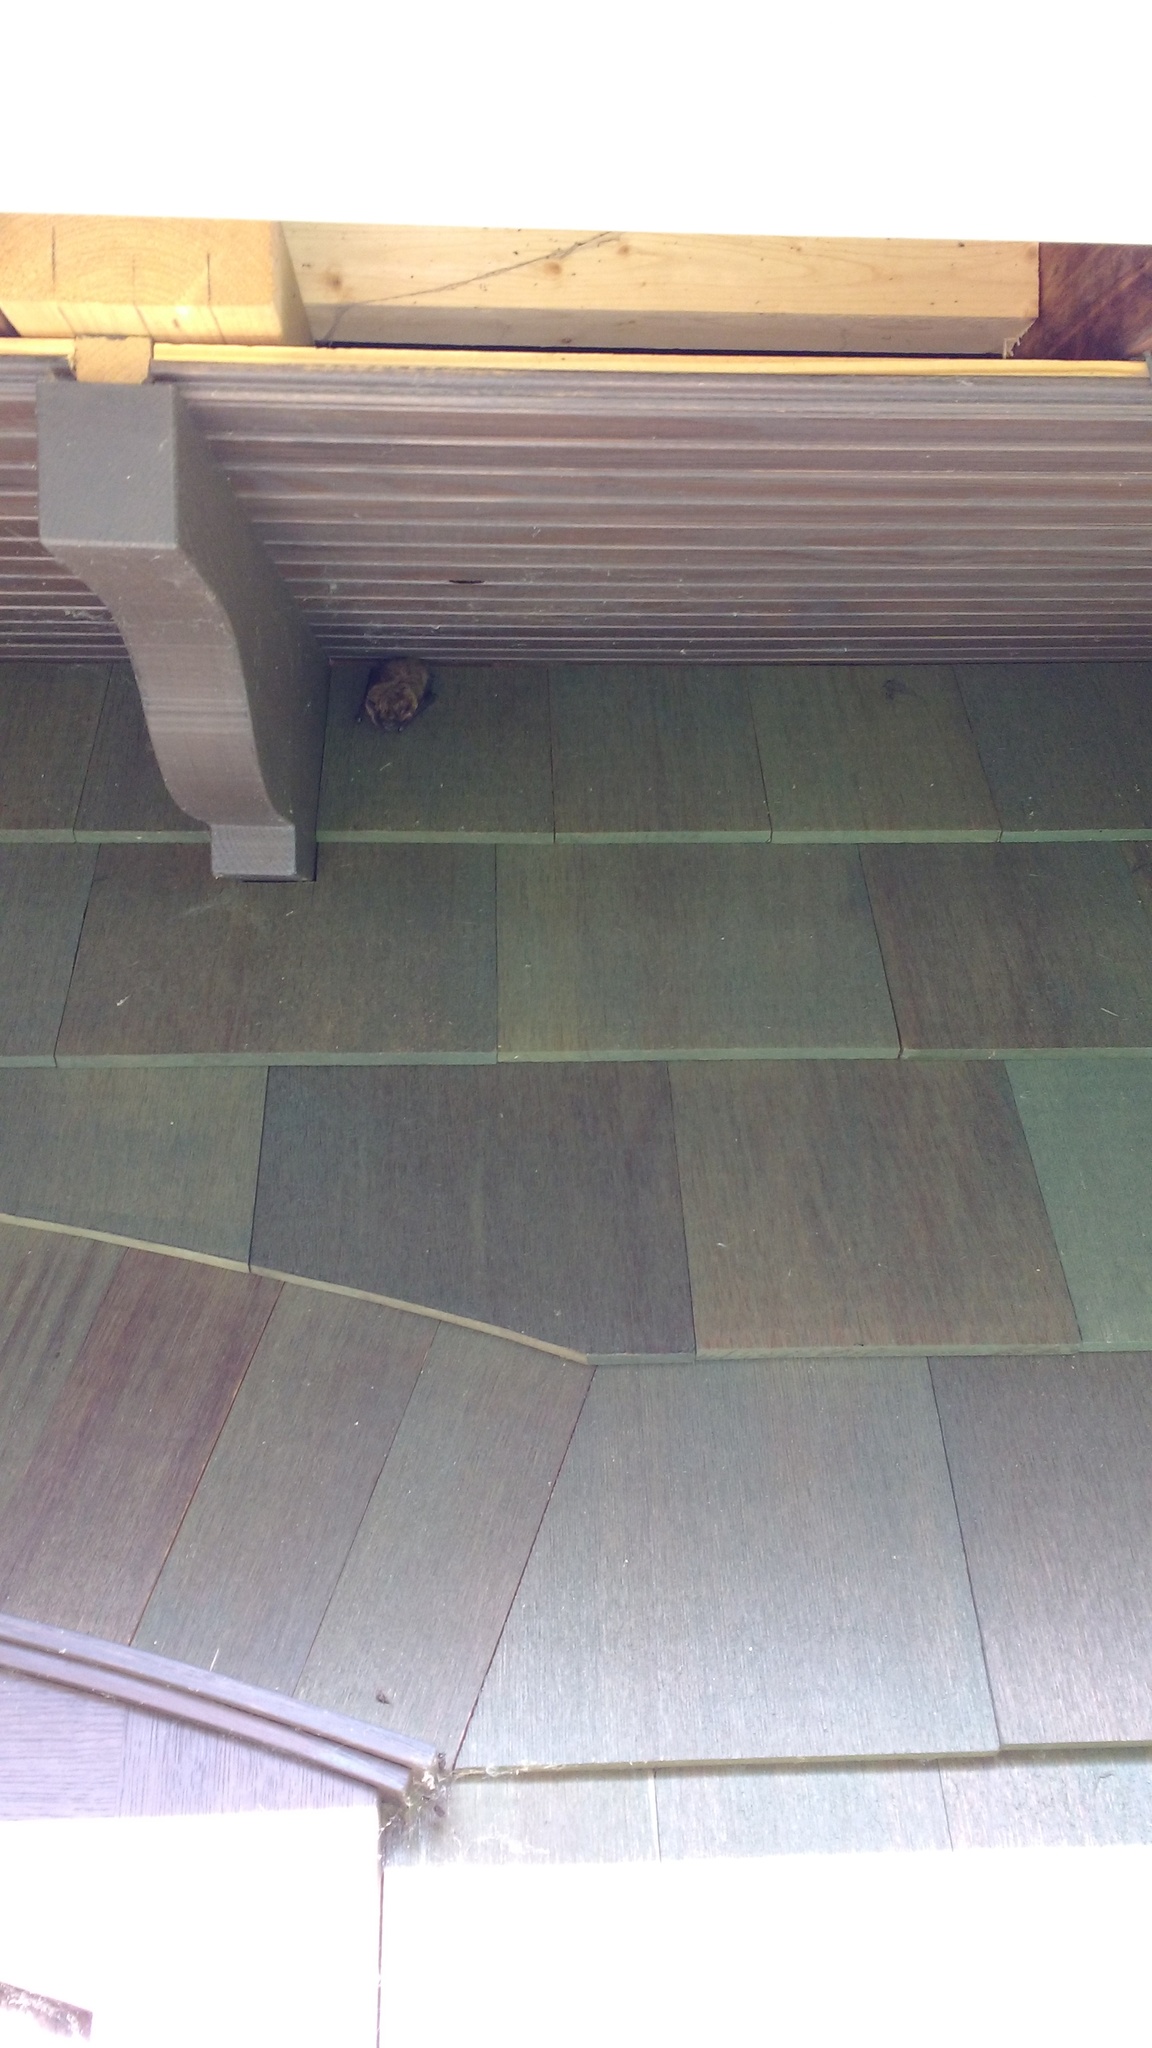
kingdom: Animalia
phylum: Chordata
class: Mammalia
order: Chiroptera
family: Vespertilionidae
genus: Eptesicus
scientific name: Eptesicus fuscus
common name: Big brown bat
